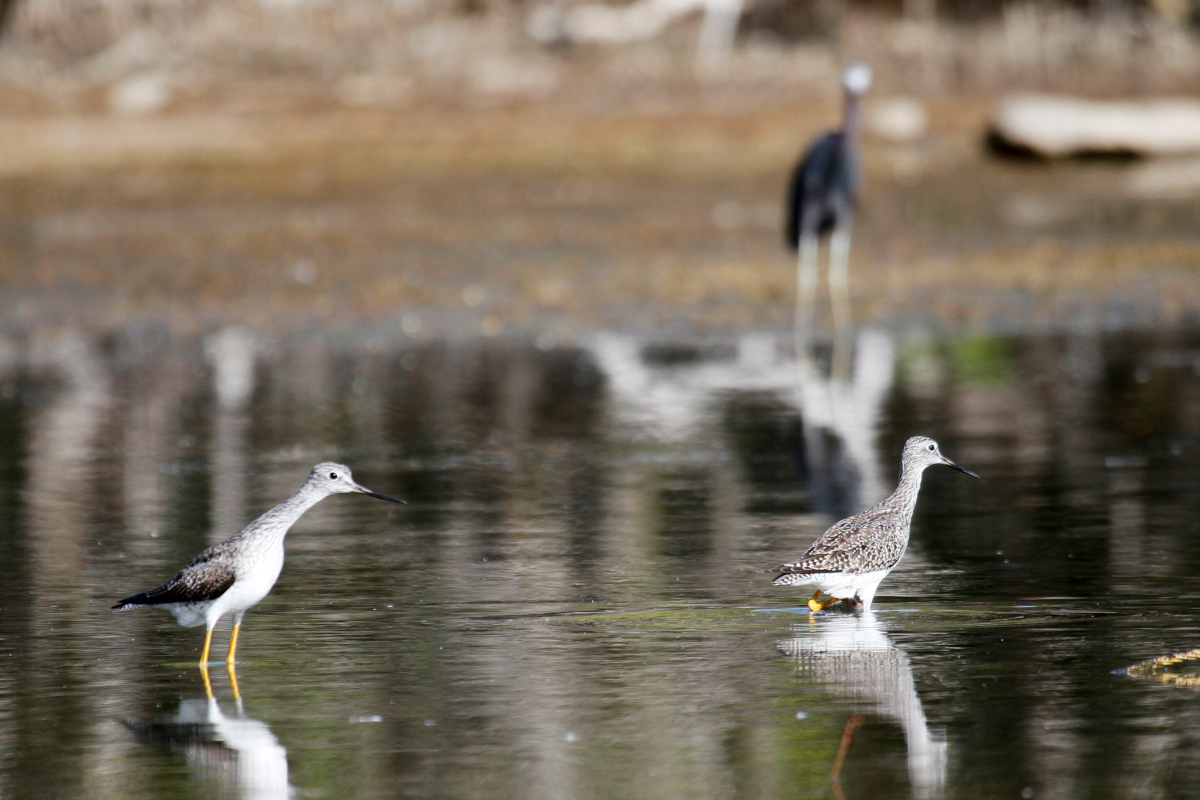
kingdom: Animalia
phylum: Chordata
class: Aves
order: Charadriiformes
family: Scolopacidae
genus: Tringa
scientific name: Tringa melanoleuca
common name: Greater yellowlegs
